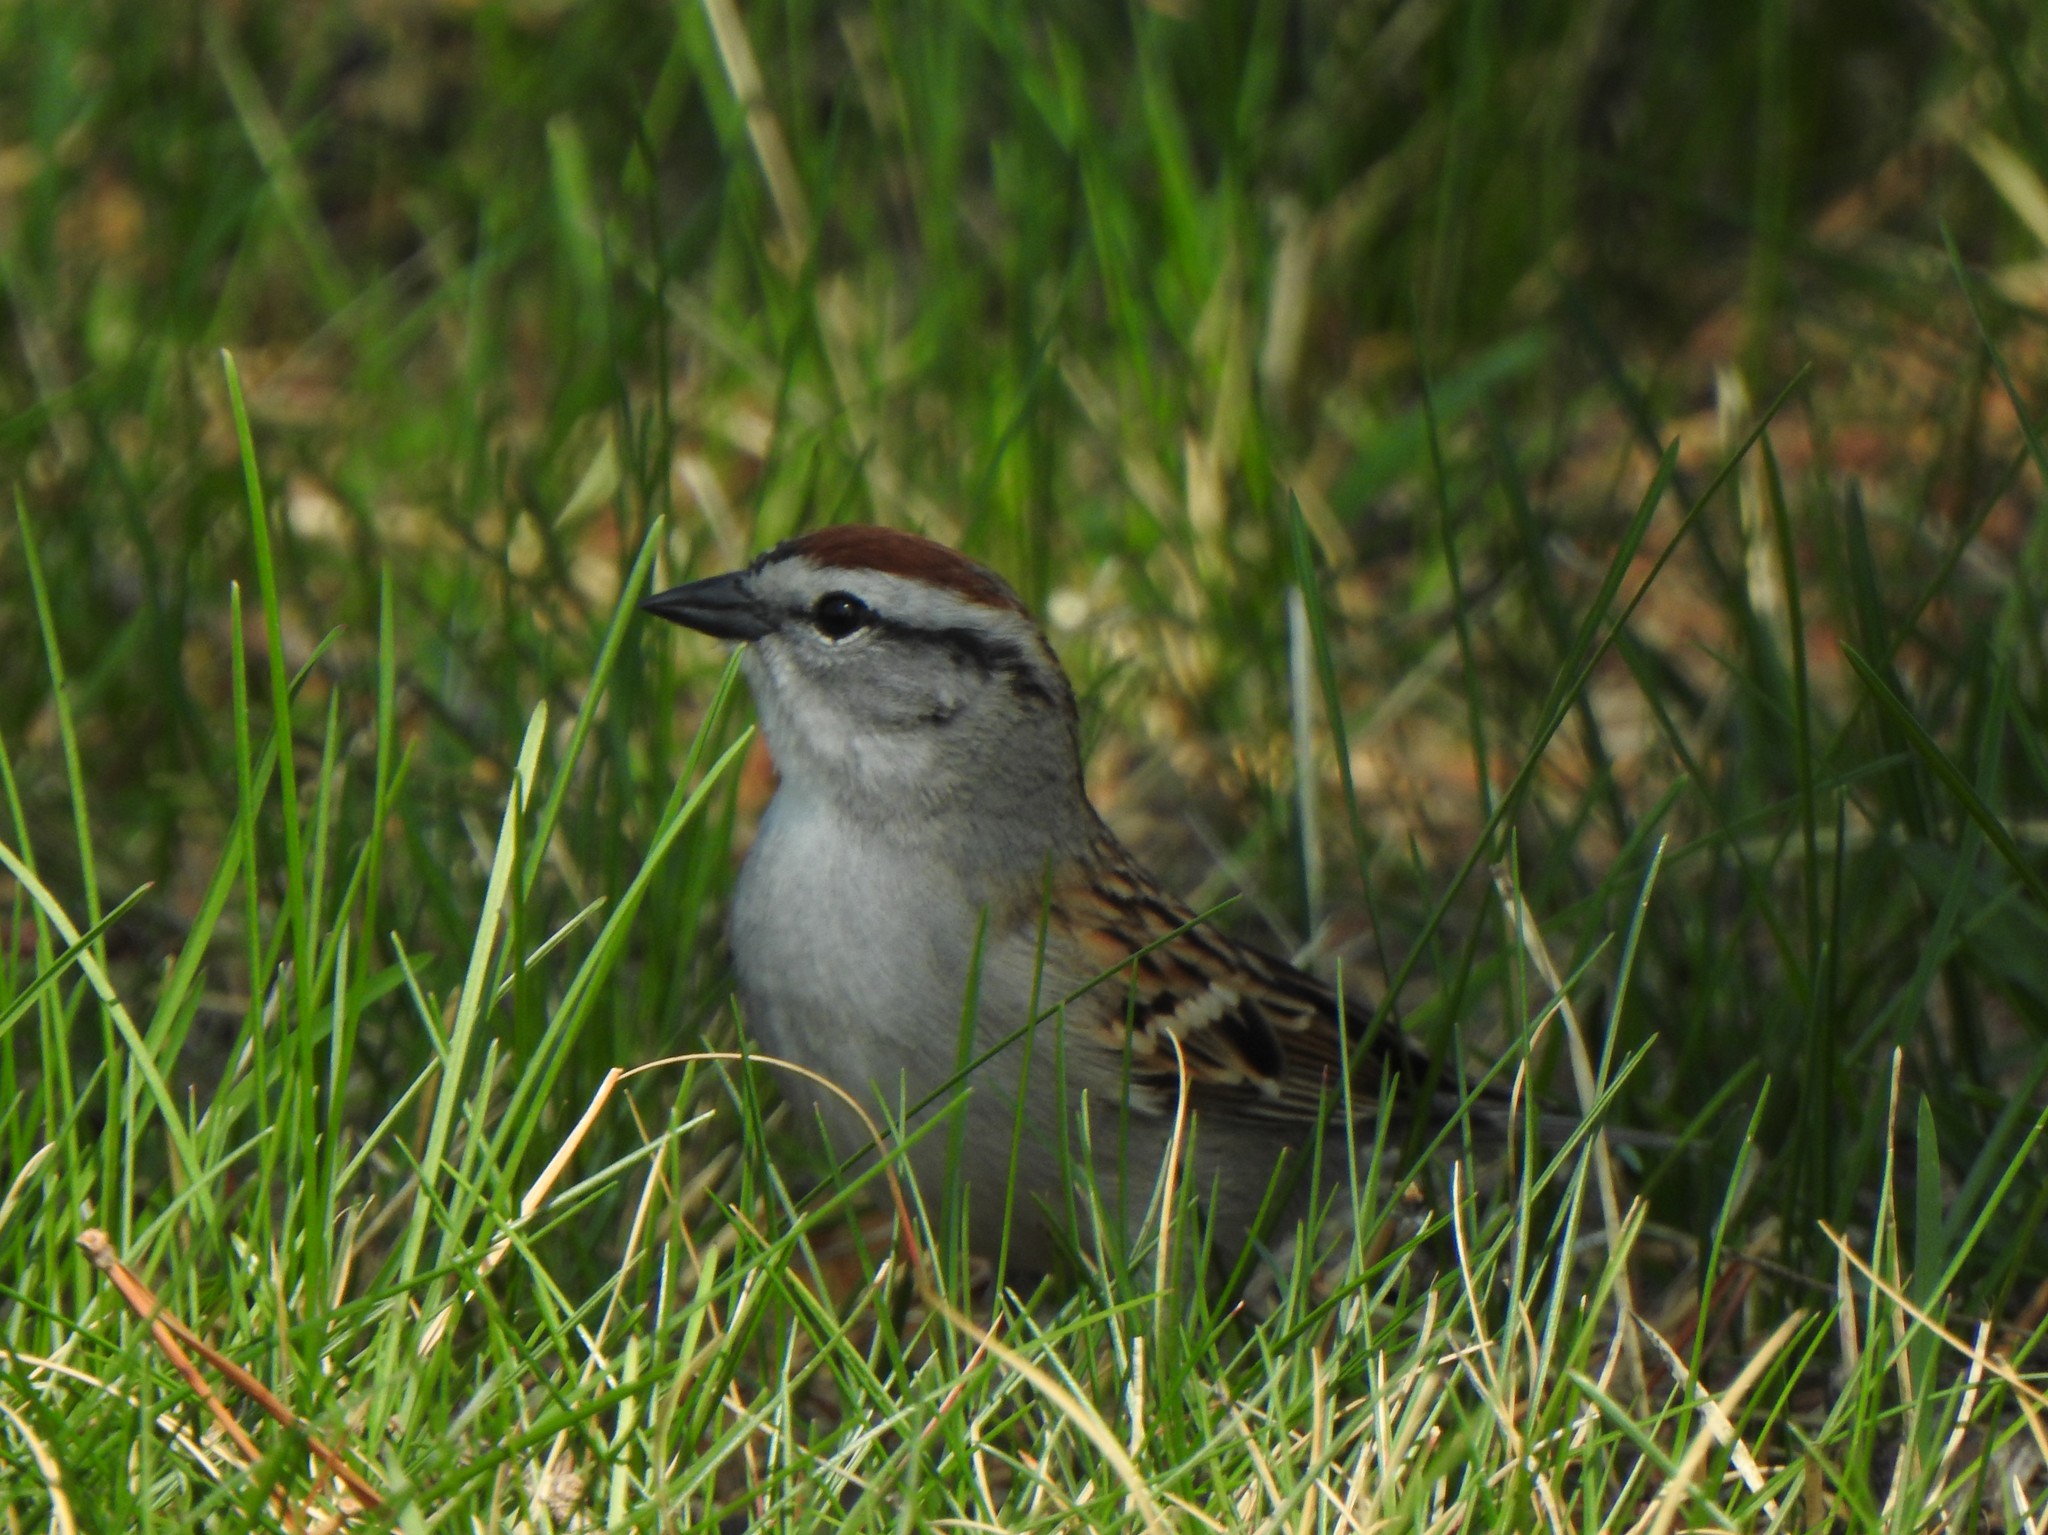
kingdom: Animalia
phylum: Chordata
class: Aves
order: Passeriformes
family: Passerellidae
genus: Spizella
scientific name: Spizella passerina
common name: Chipping sparrow
